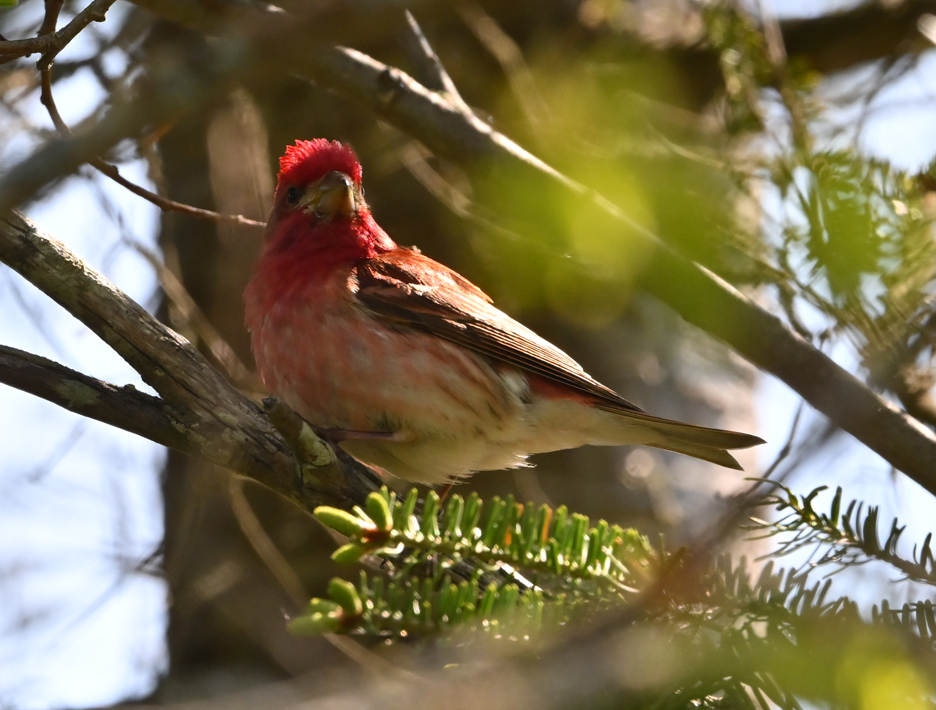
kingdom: Animalia
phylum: Chordata
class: Aves
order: Passeriformes
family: Fringillidae
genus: Haemorhous
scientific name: Haemorhous purpureus
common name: Purple finch
